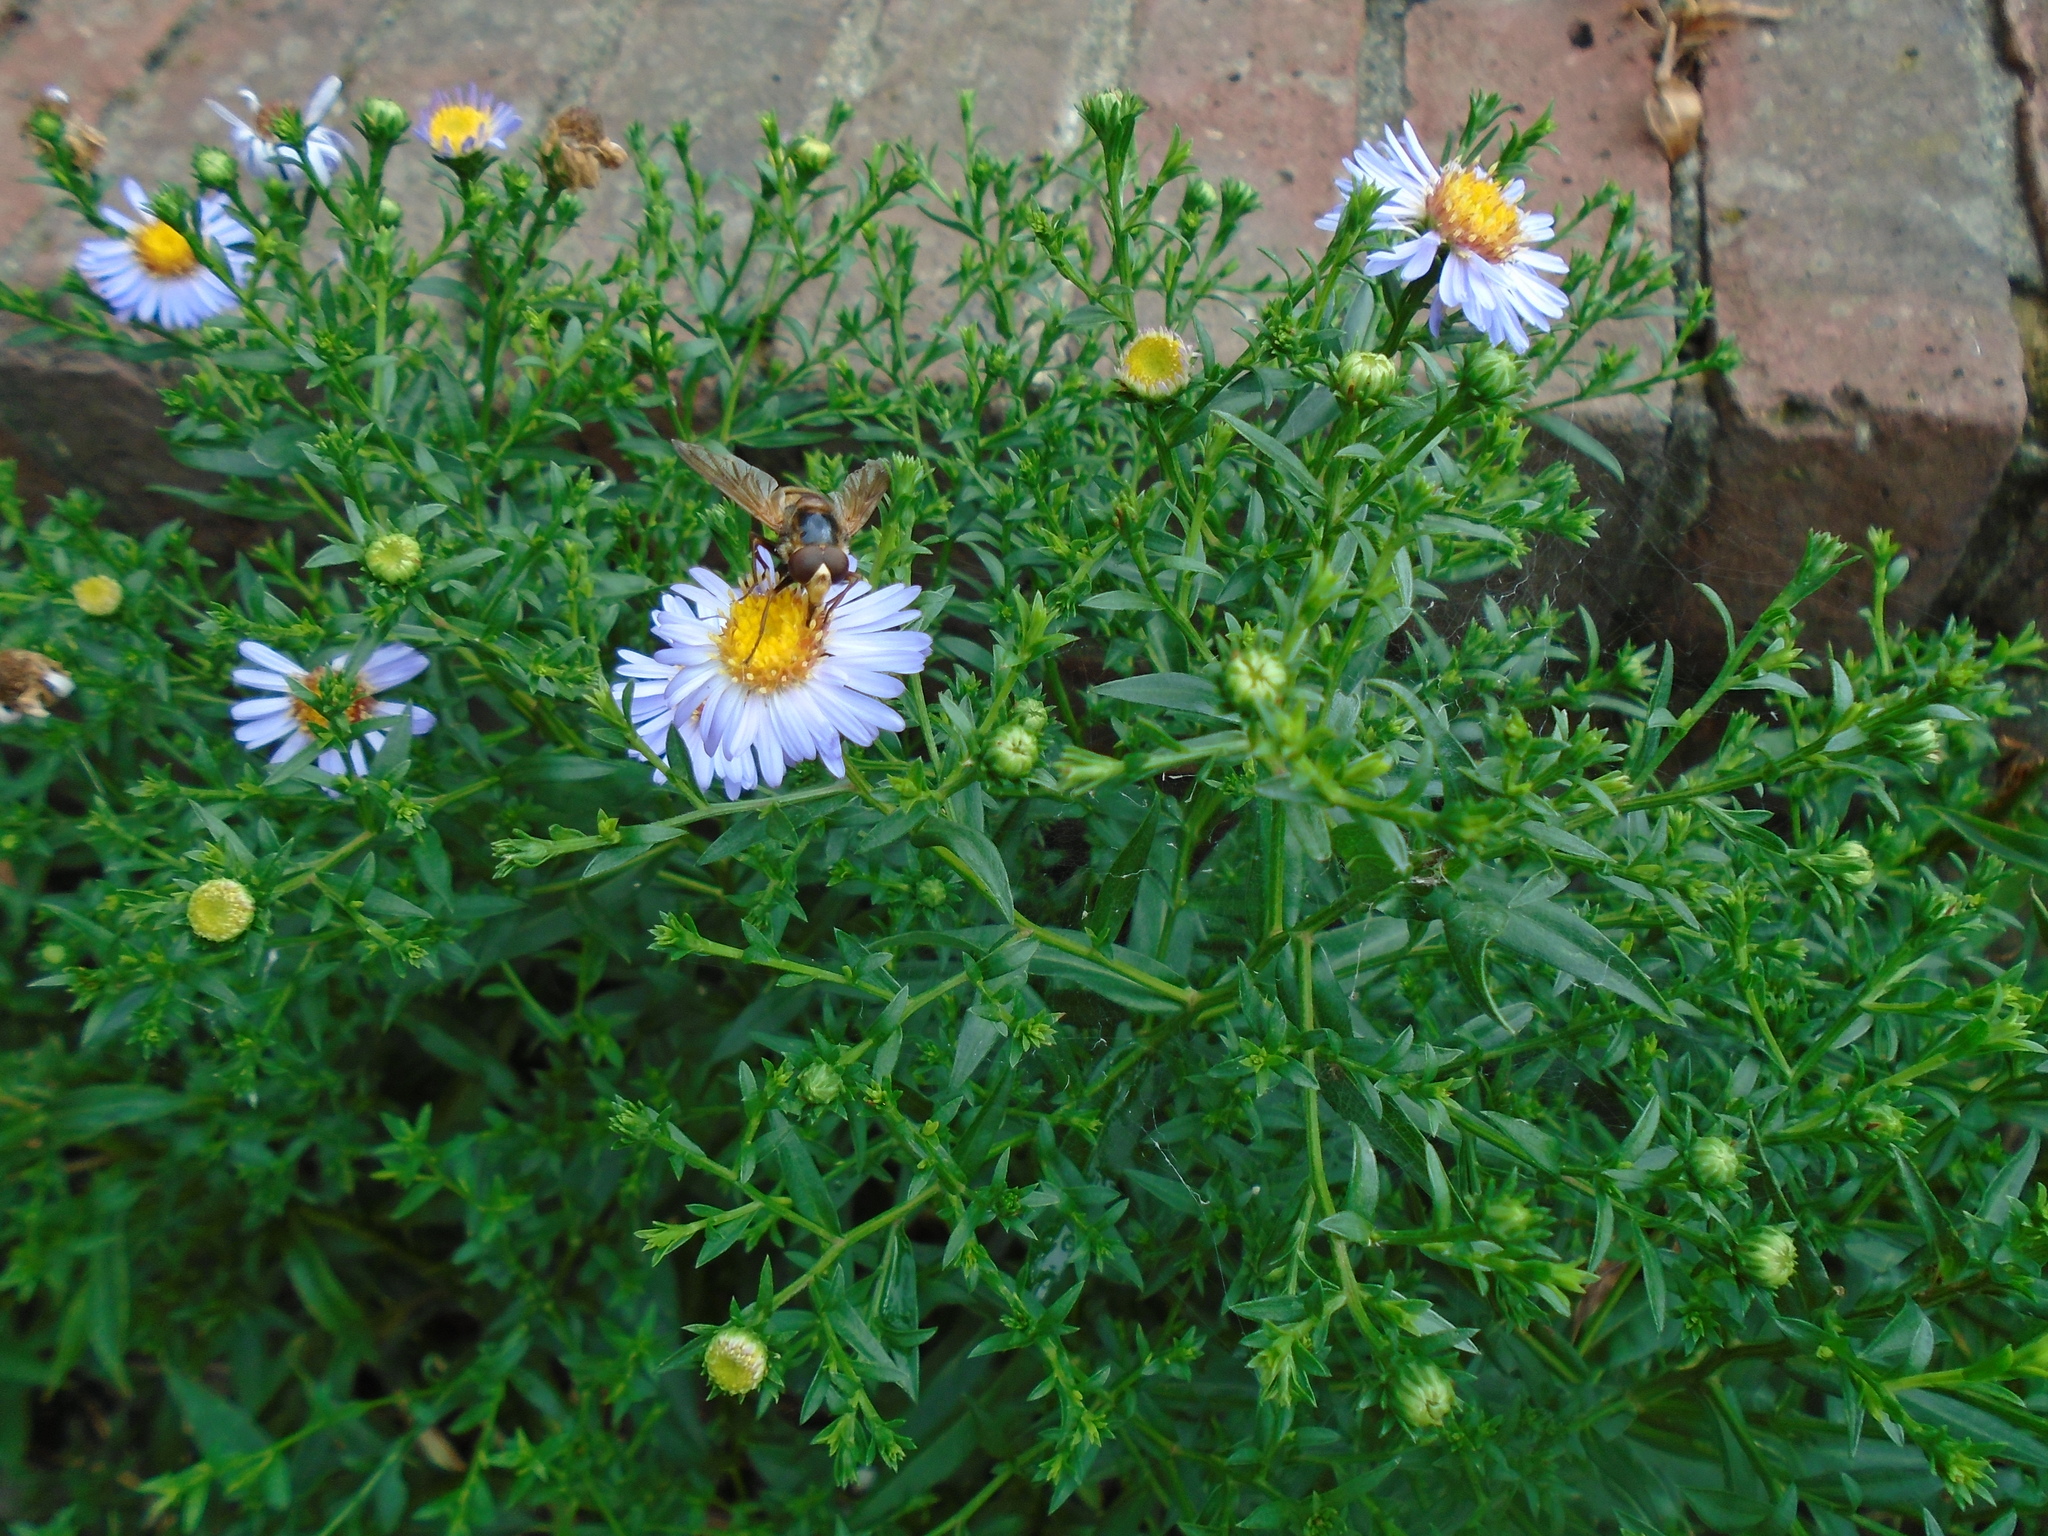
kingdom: Animalia
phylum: Arthropoda
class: Insecta
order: Diptera
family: Syrphidae
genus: Volucella
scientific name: Volucella inanis
